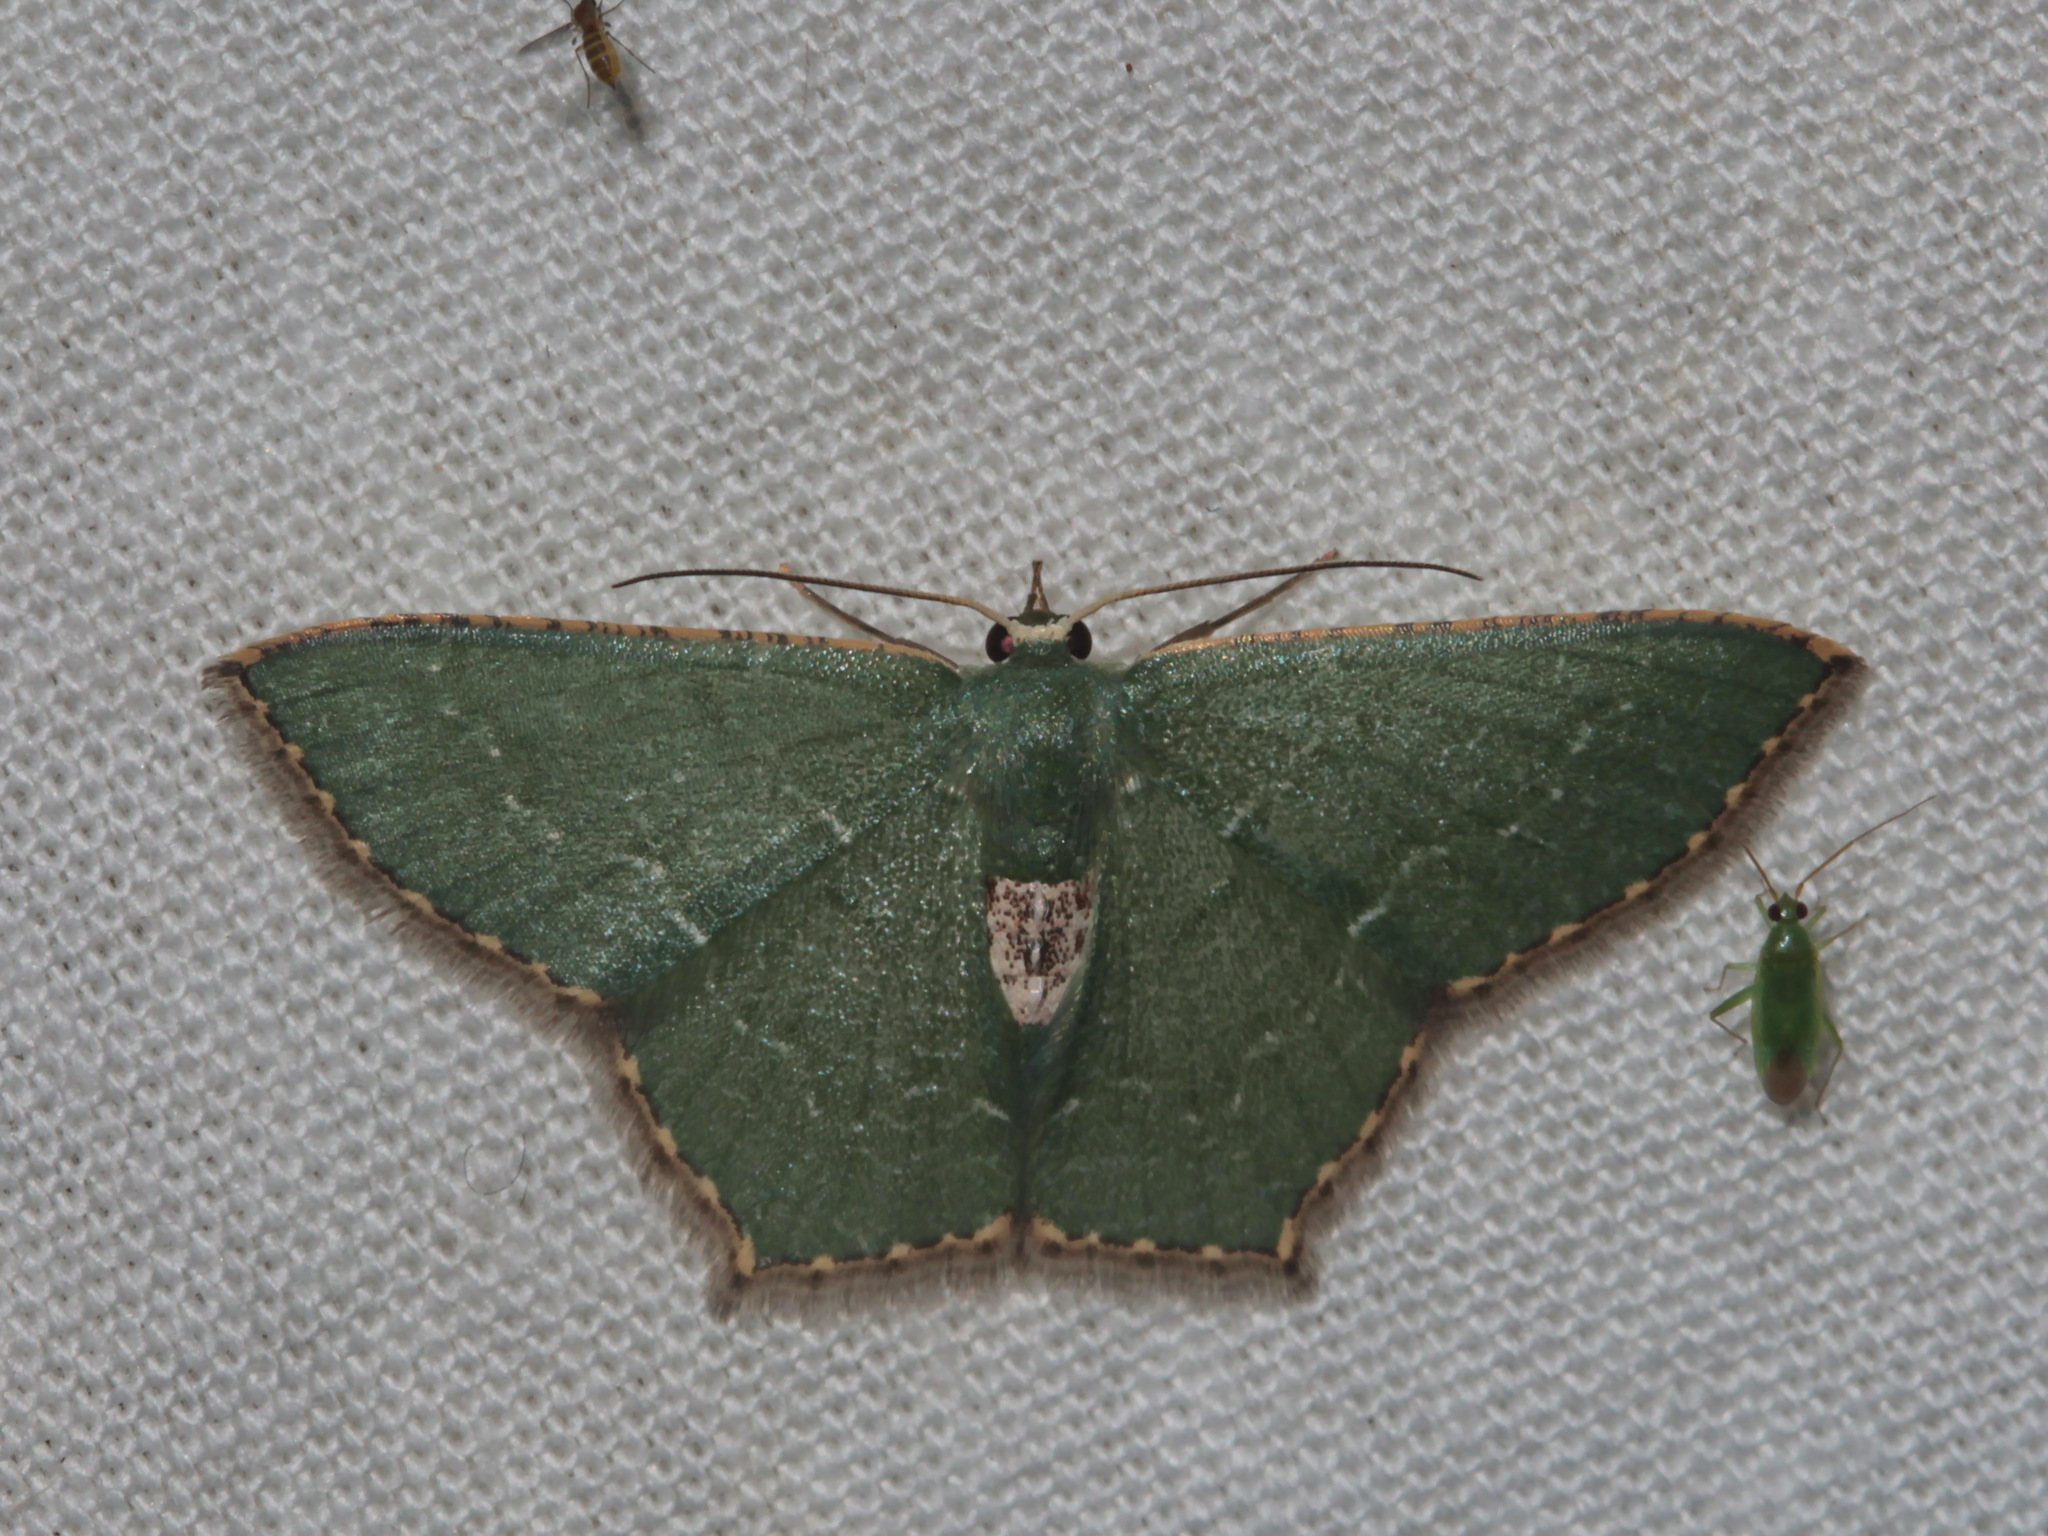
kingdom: Animalia
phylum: Arthropoda
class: Insecta
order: Lepidoptera
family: Geometridae
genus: Hemithea
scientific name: Hemithea tritonaria
